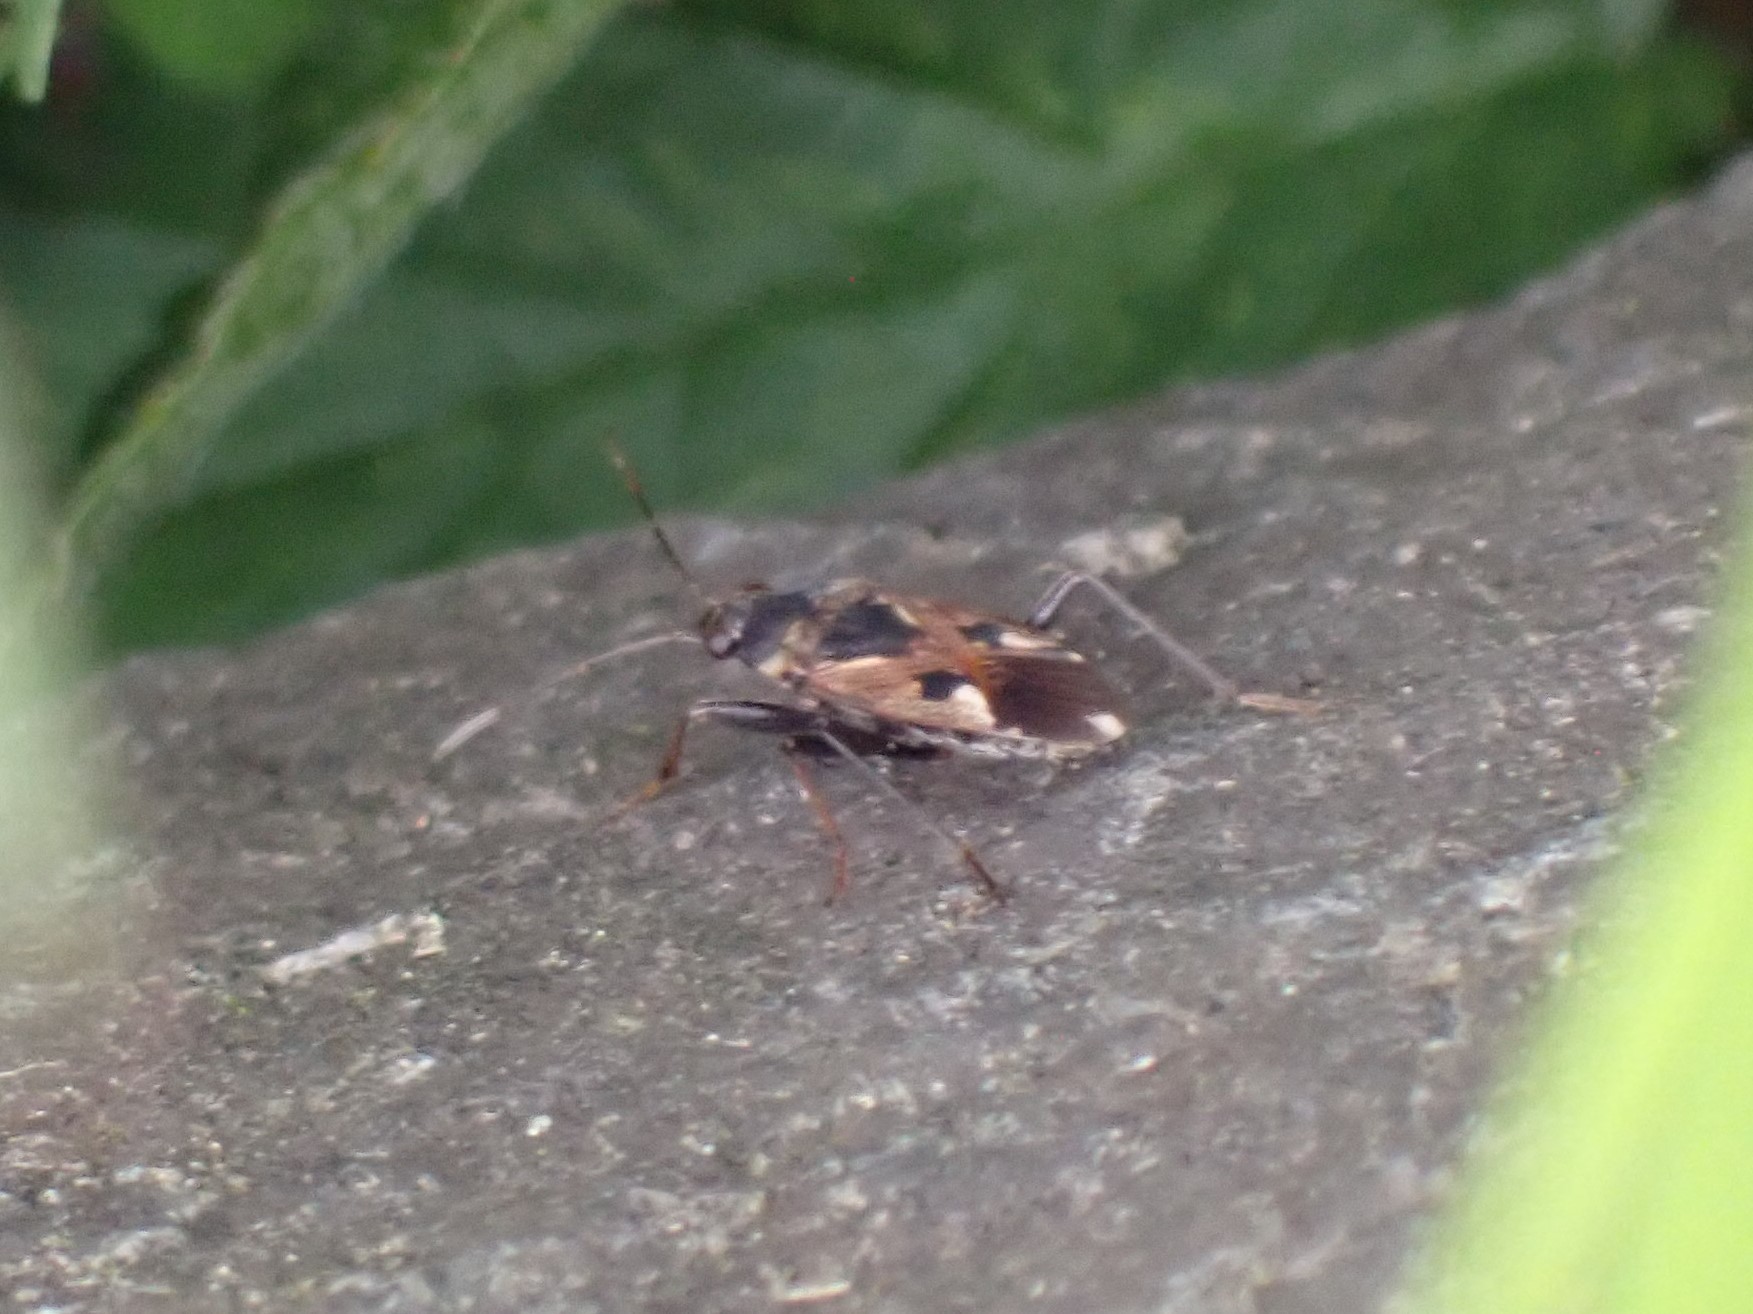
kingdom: Animalia
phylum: Arthropoda
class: Insecta
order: Hemiptera
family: Rhyparochromidae
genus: Rhyparochromus
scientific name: Rhyparochromus vulgaris
